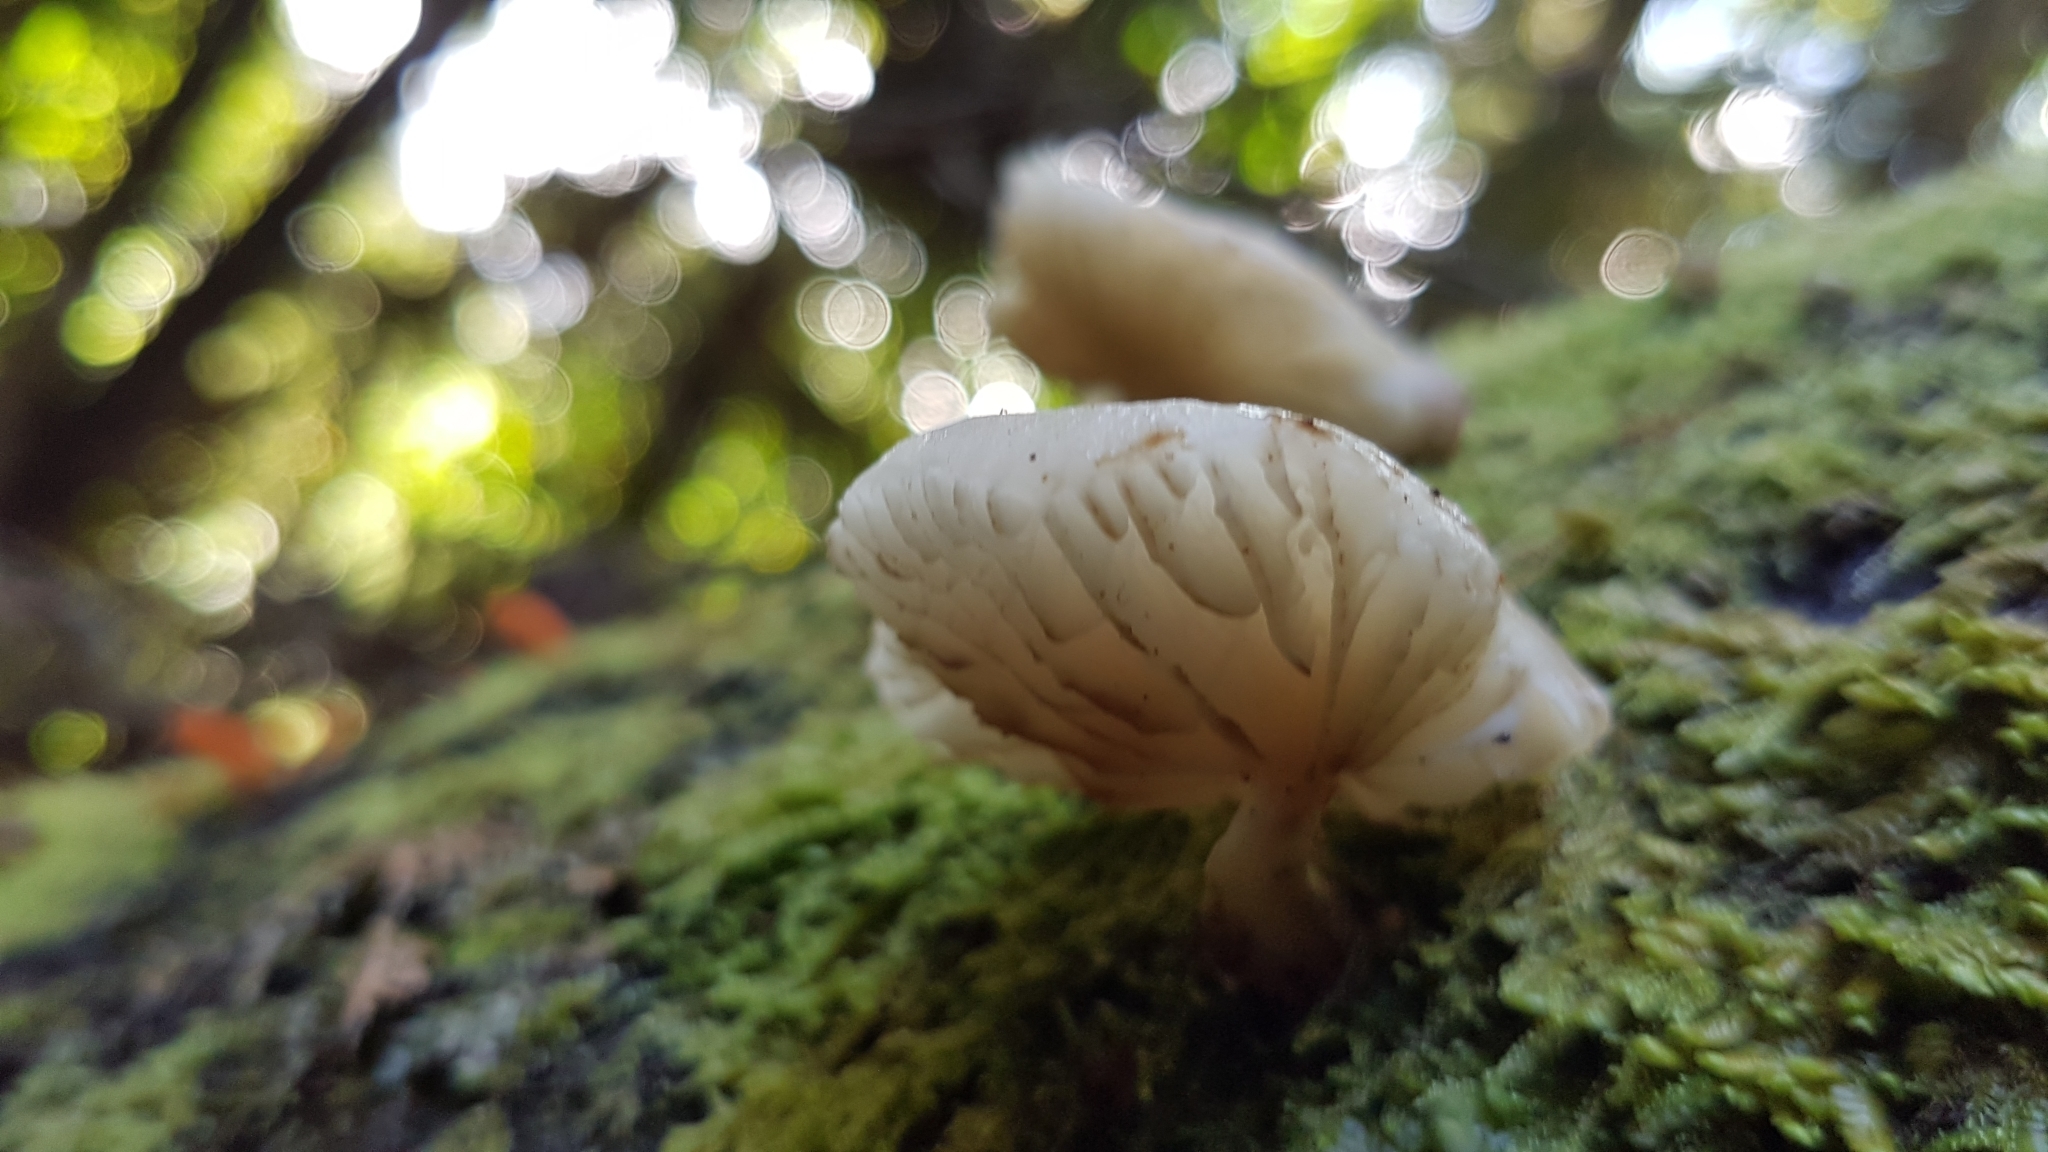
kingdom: Fungi
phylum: Basidiomycota
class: Agaricomycetes
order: Agaricales
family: Physalacriaceae
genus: Oudemansiella
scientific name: Oudemansiella australis
